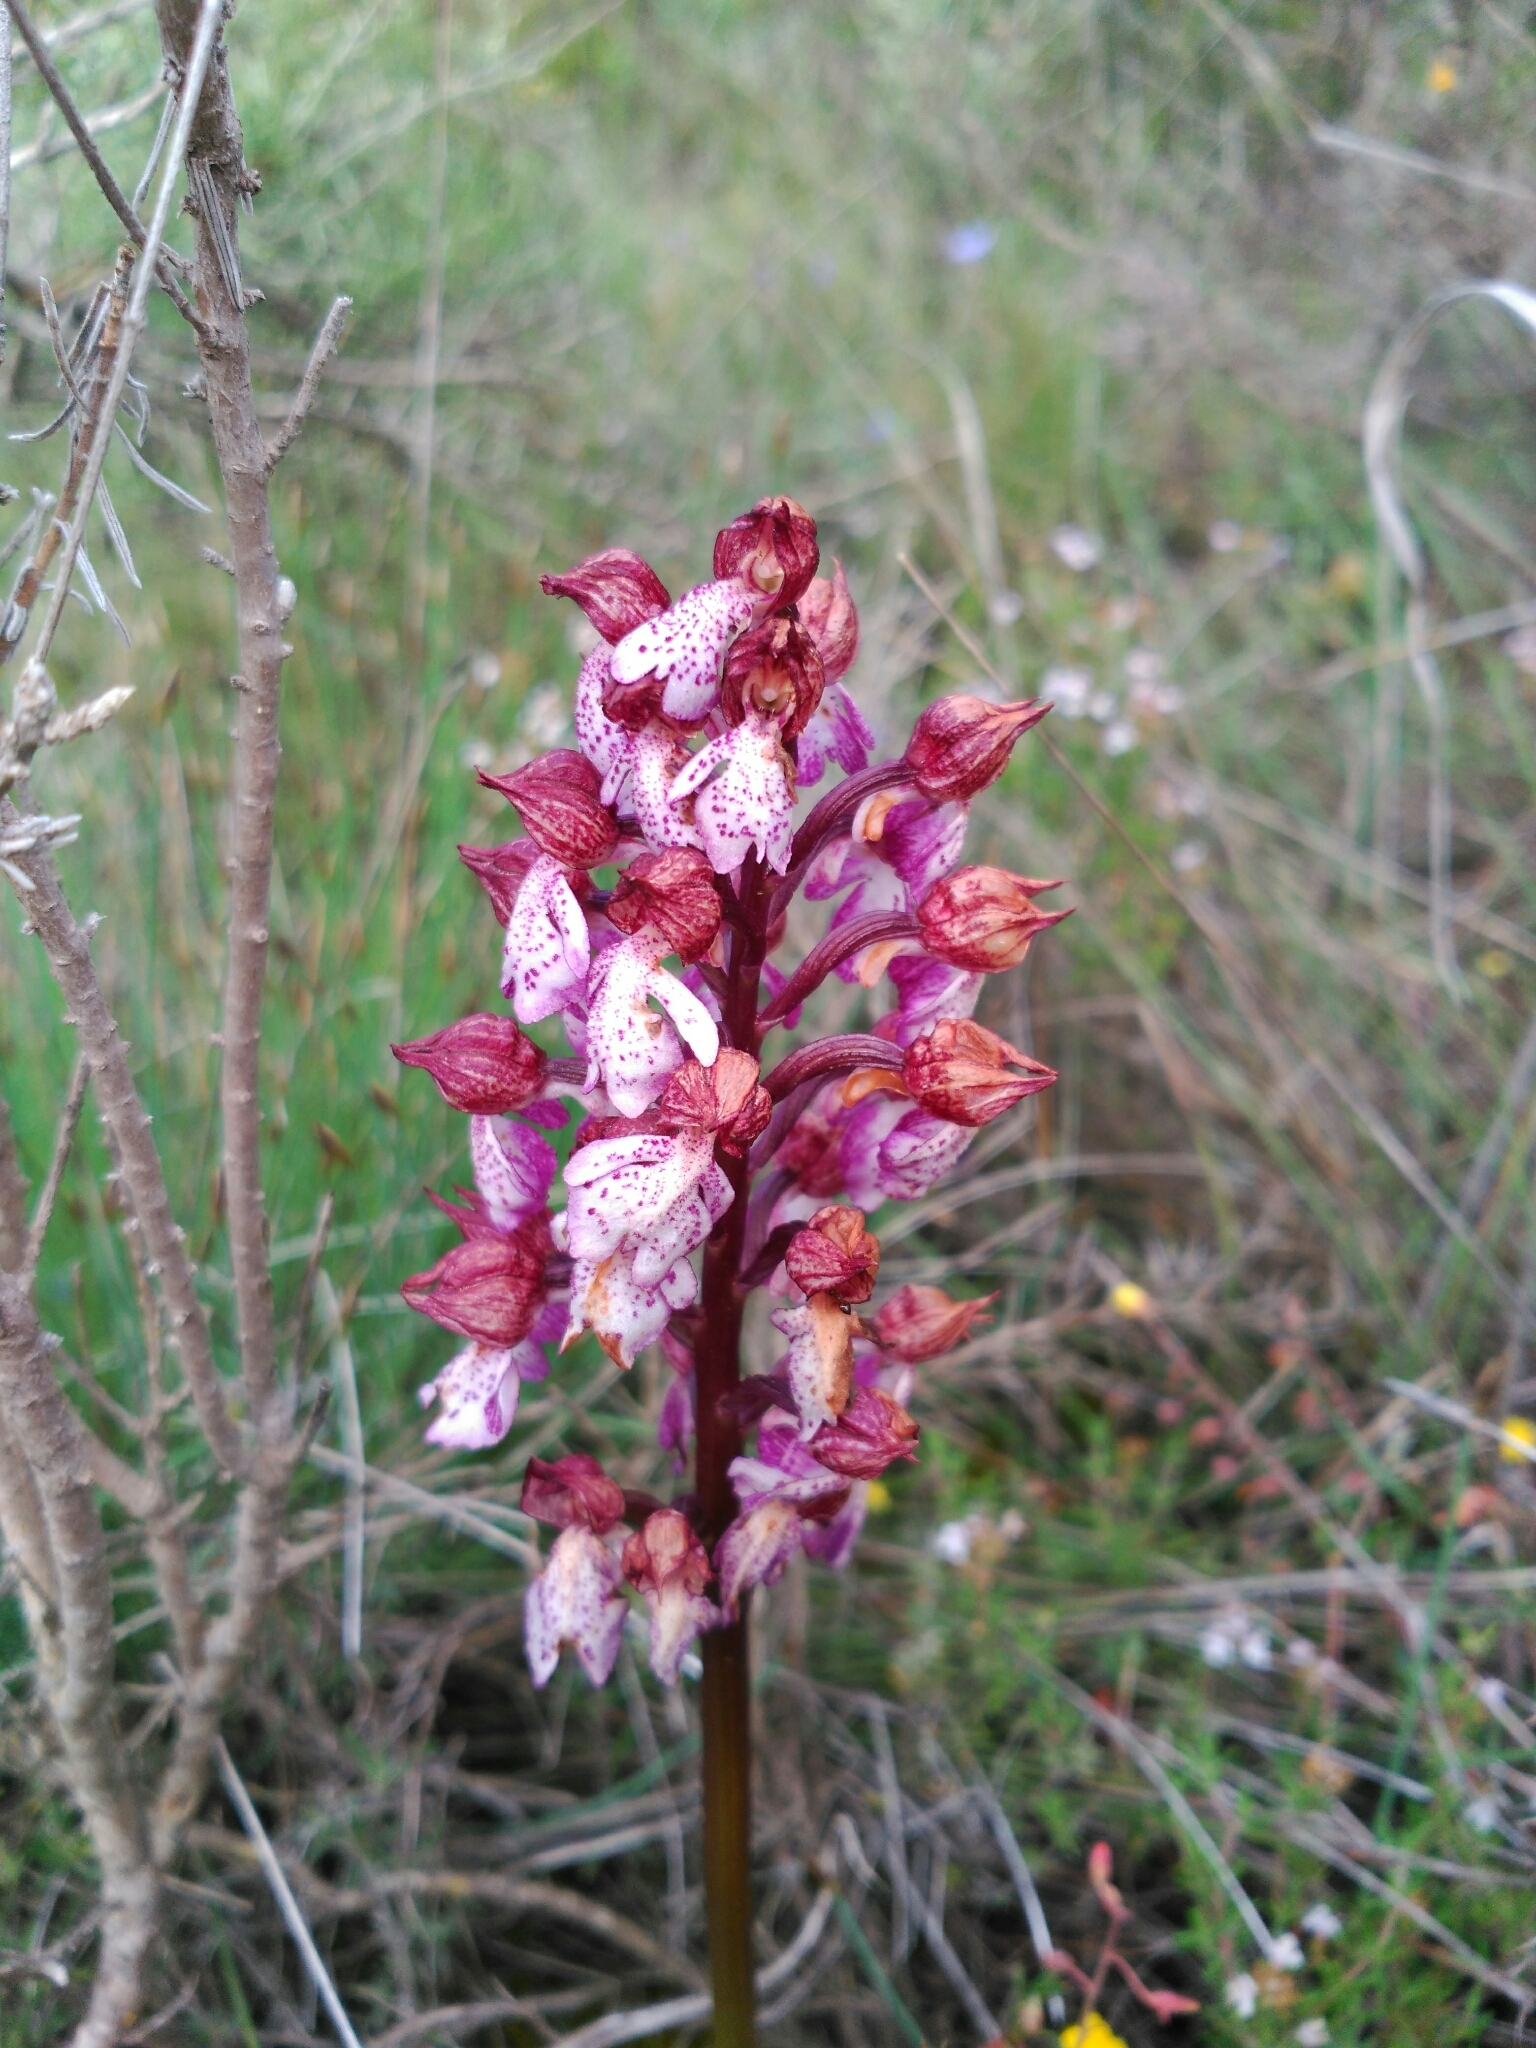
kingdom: Plantae
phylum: Tracheophyta
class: Liliopsida
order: Asparagales
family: Orchidaceae
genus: Orchis
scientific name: Orchis purpurea
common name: Lady orchid
